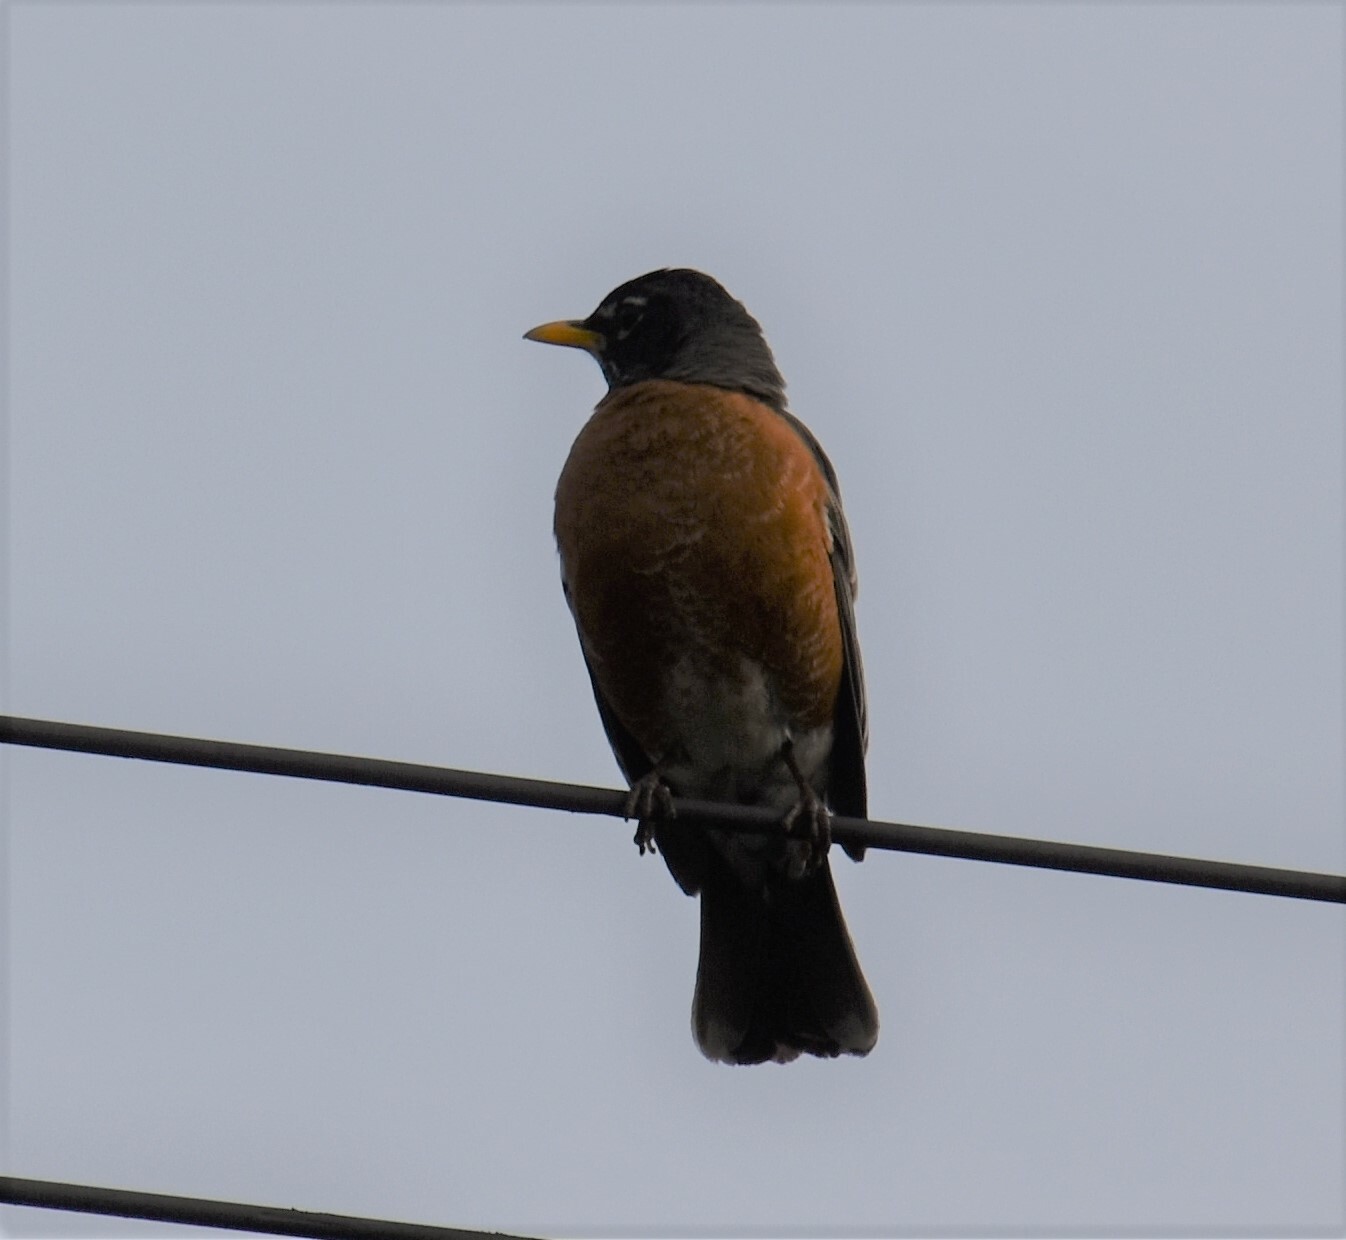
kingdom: Animalia
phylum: Chordata
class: Aves
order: Passeriformes
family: Turdidae
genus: Turdus
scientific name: Turdus migratorius
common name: American robin
